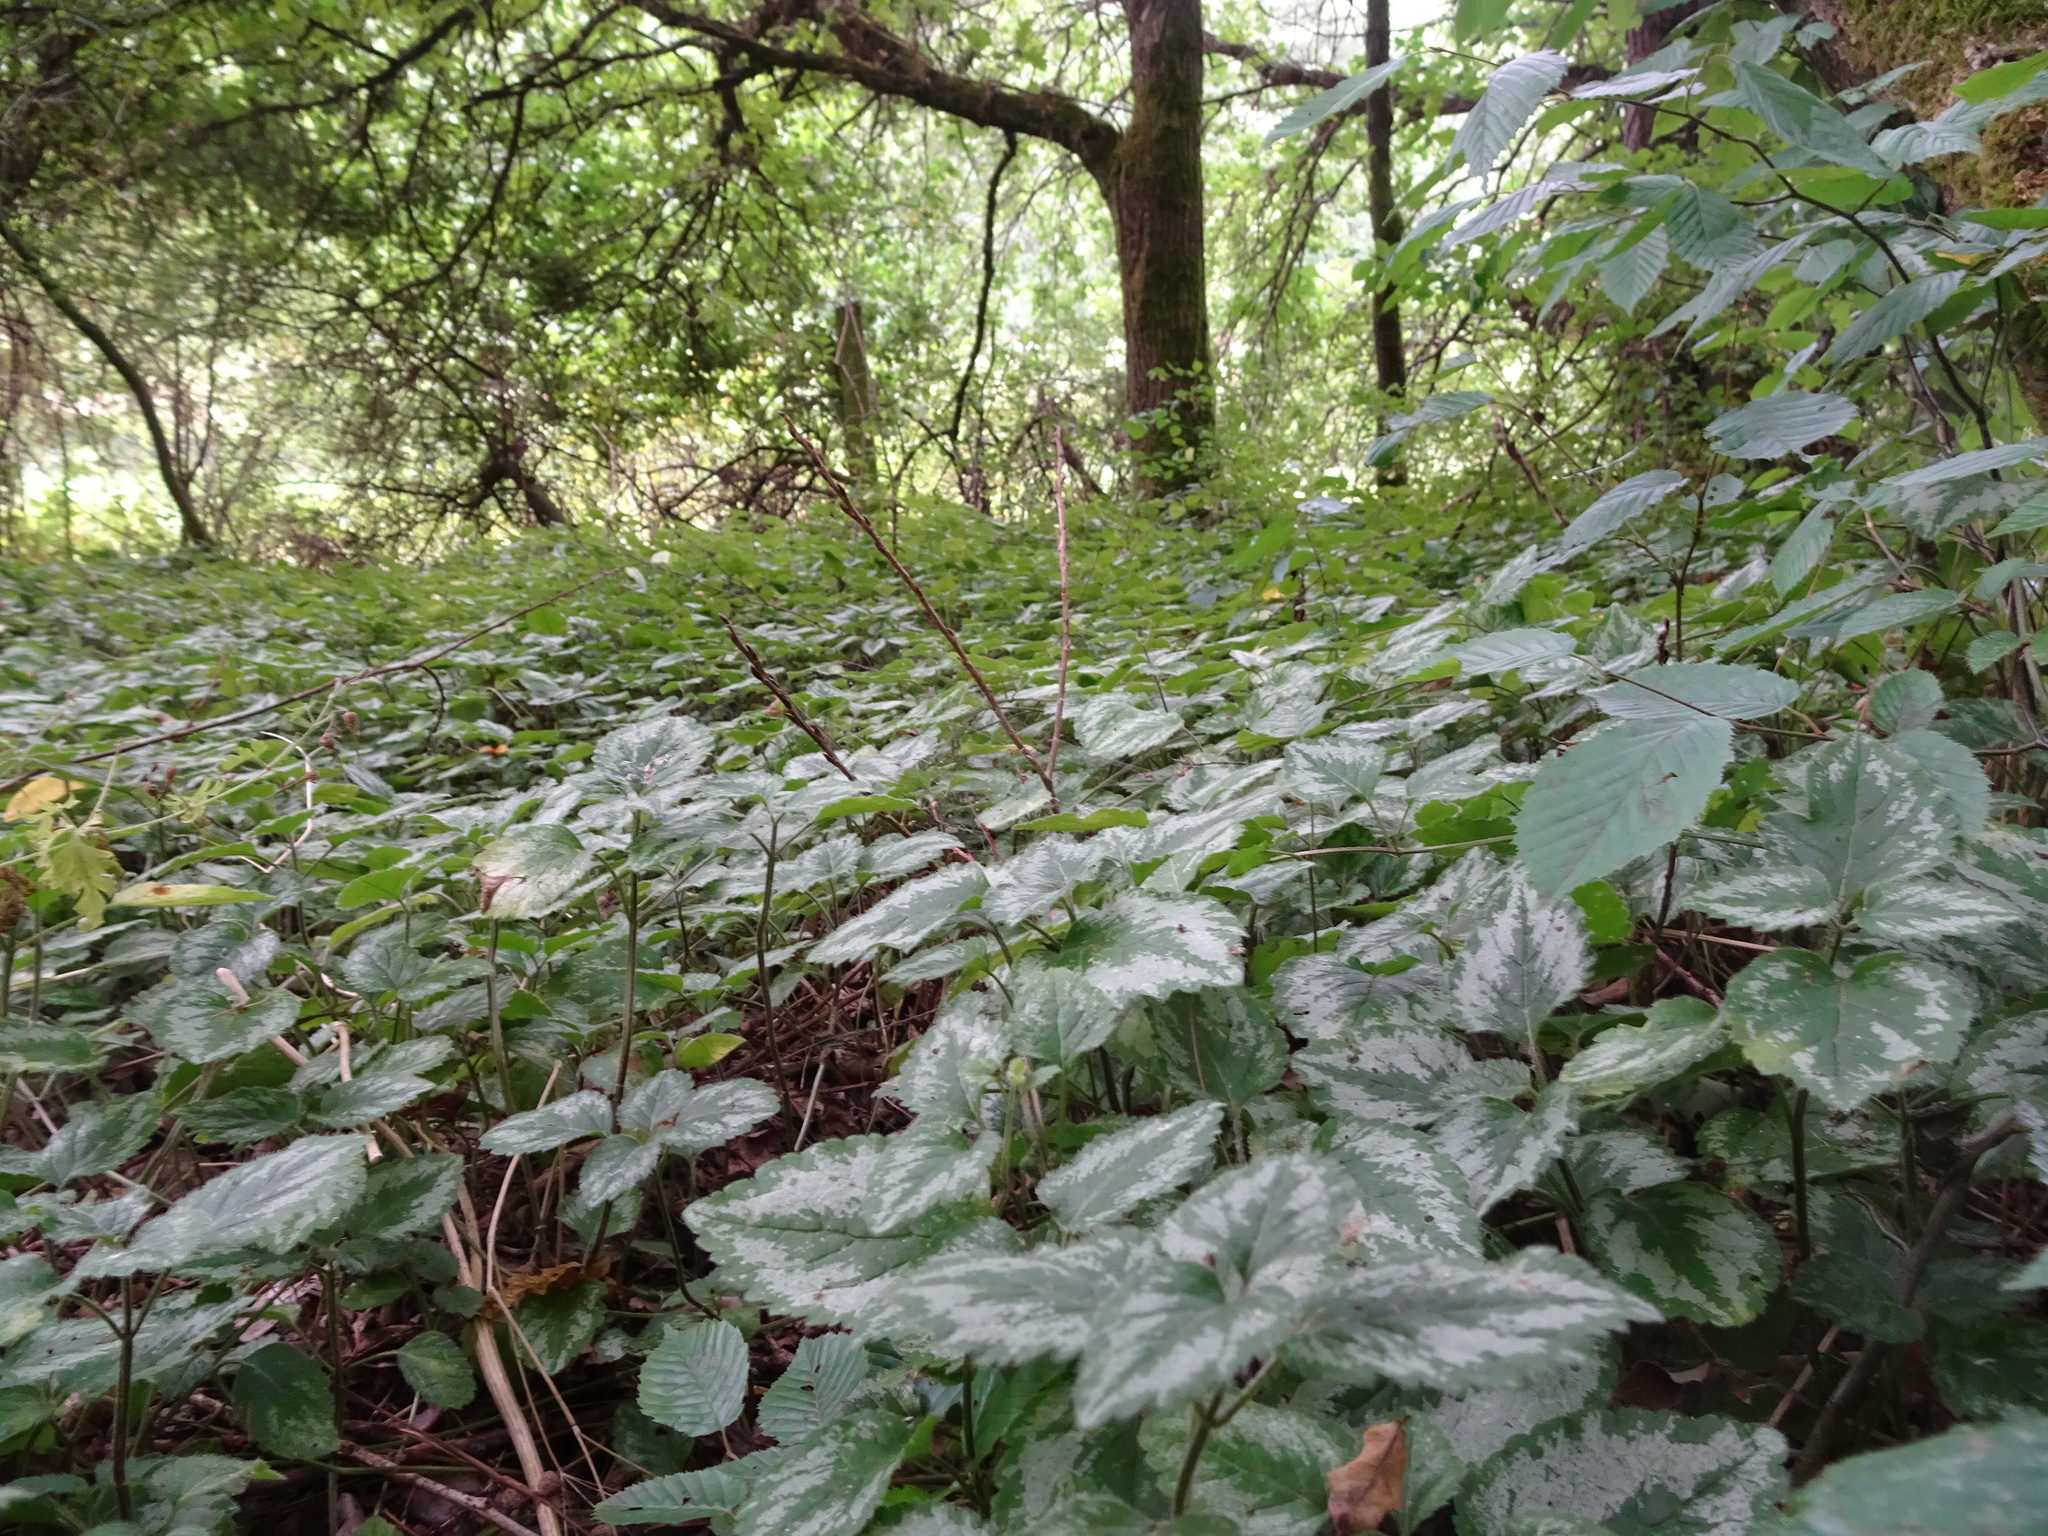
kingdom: Plantae
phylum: Tracheophyta
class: Magnoliopsida
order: Lamiales
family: Lamiaceae
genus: Lamium
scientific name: Lamium galeobdolon
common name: Yellow archangel
